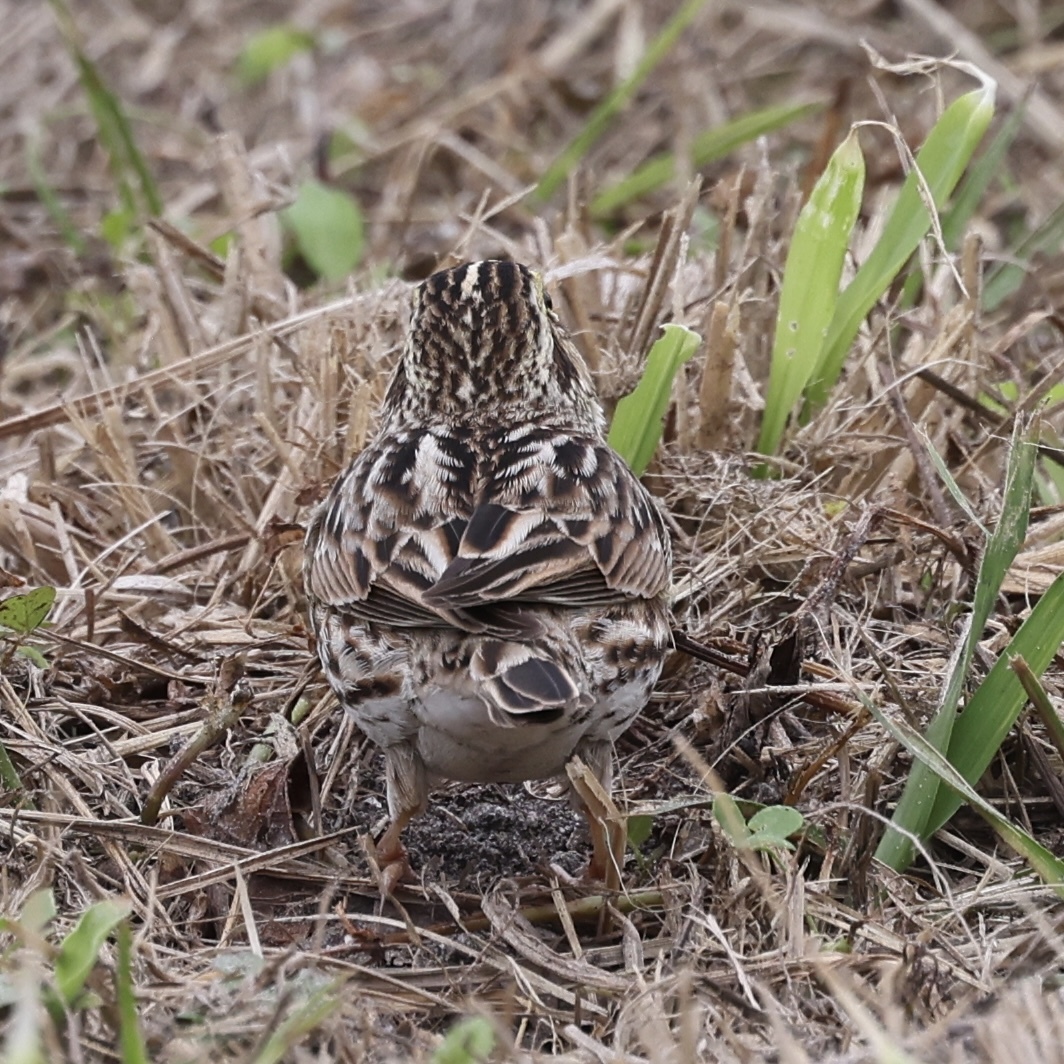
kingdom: Animalia
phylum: Chordata
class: Aves
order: Passeriformes
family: Passerellidae
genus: Passerculus
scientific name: Passerculus sandwichensis
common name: Savannah sparrow
